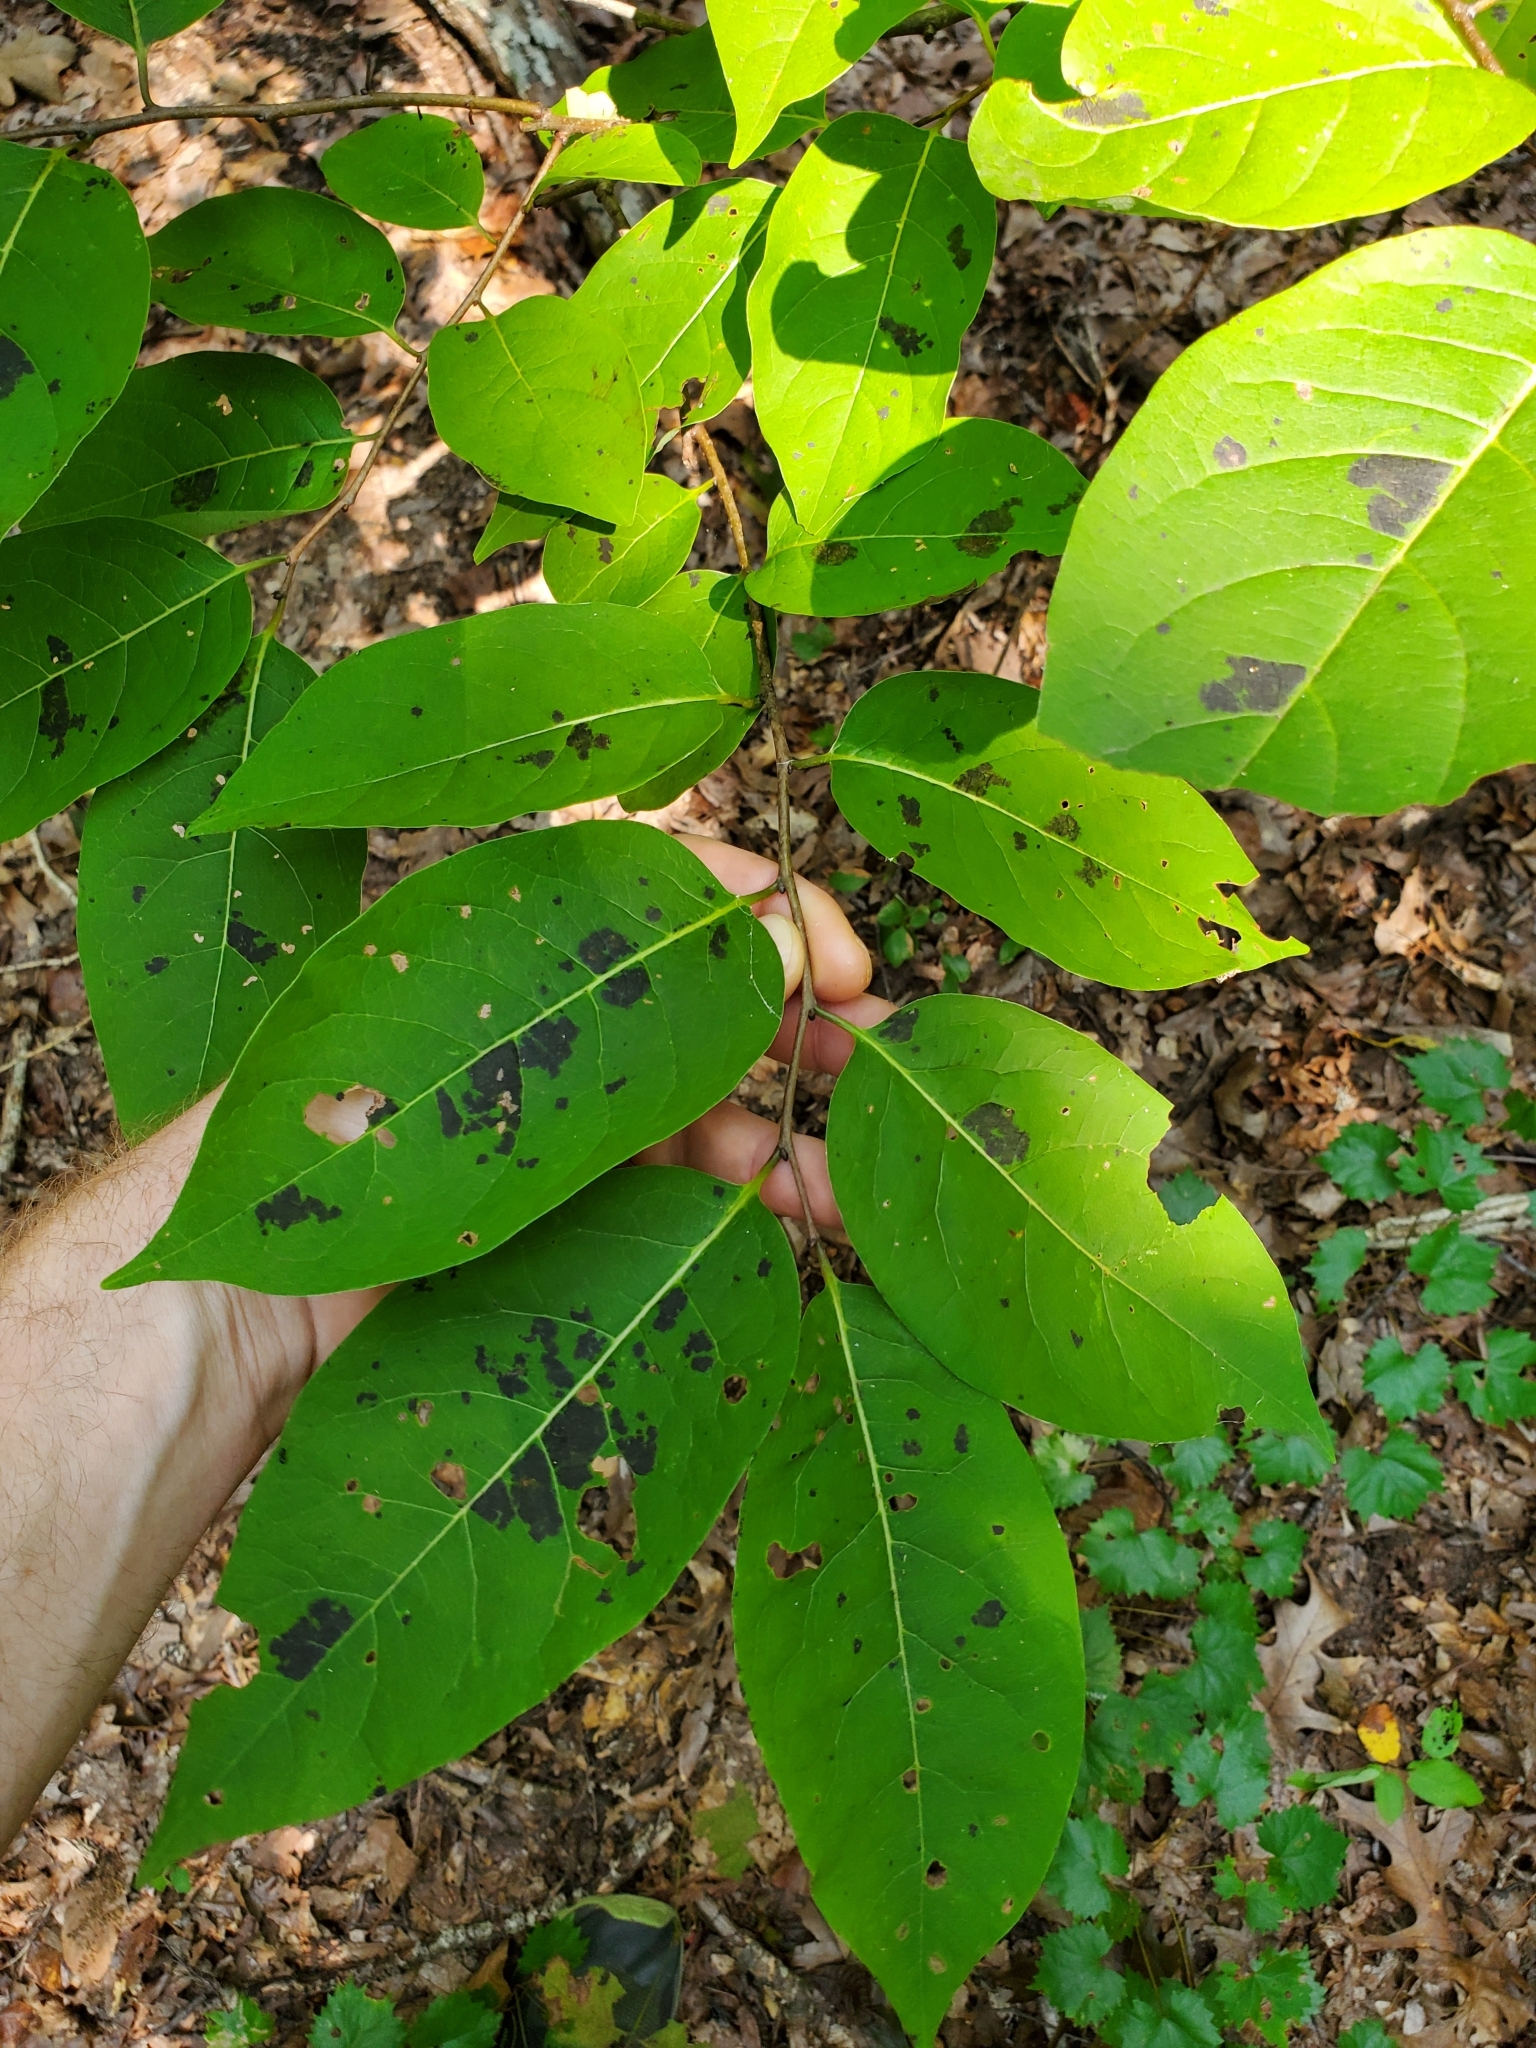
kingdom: Plantae
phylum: Tracheophyta
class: Magnoliopsida
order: Ericales
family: Ebenaceae
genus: Diospyros
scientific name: Diospyros virginiana
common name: Persimmon
